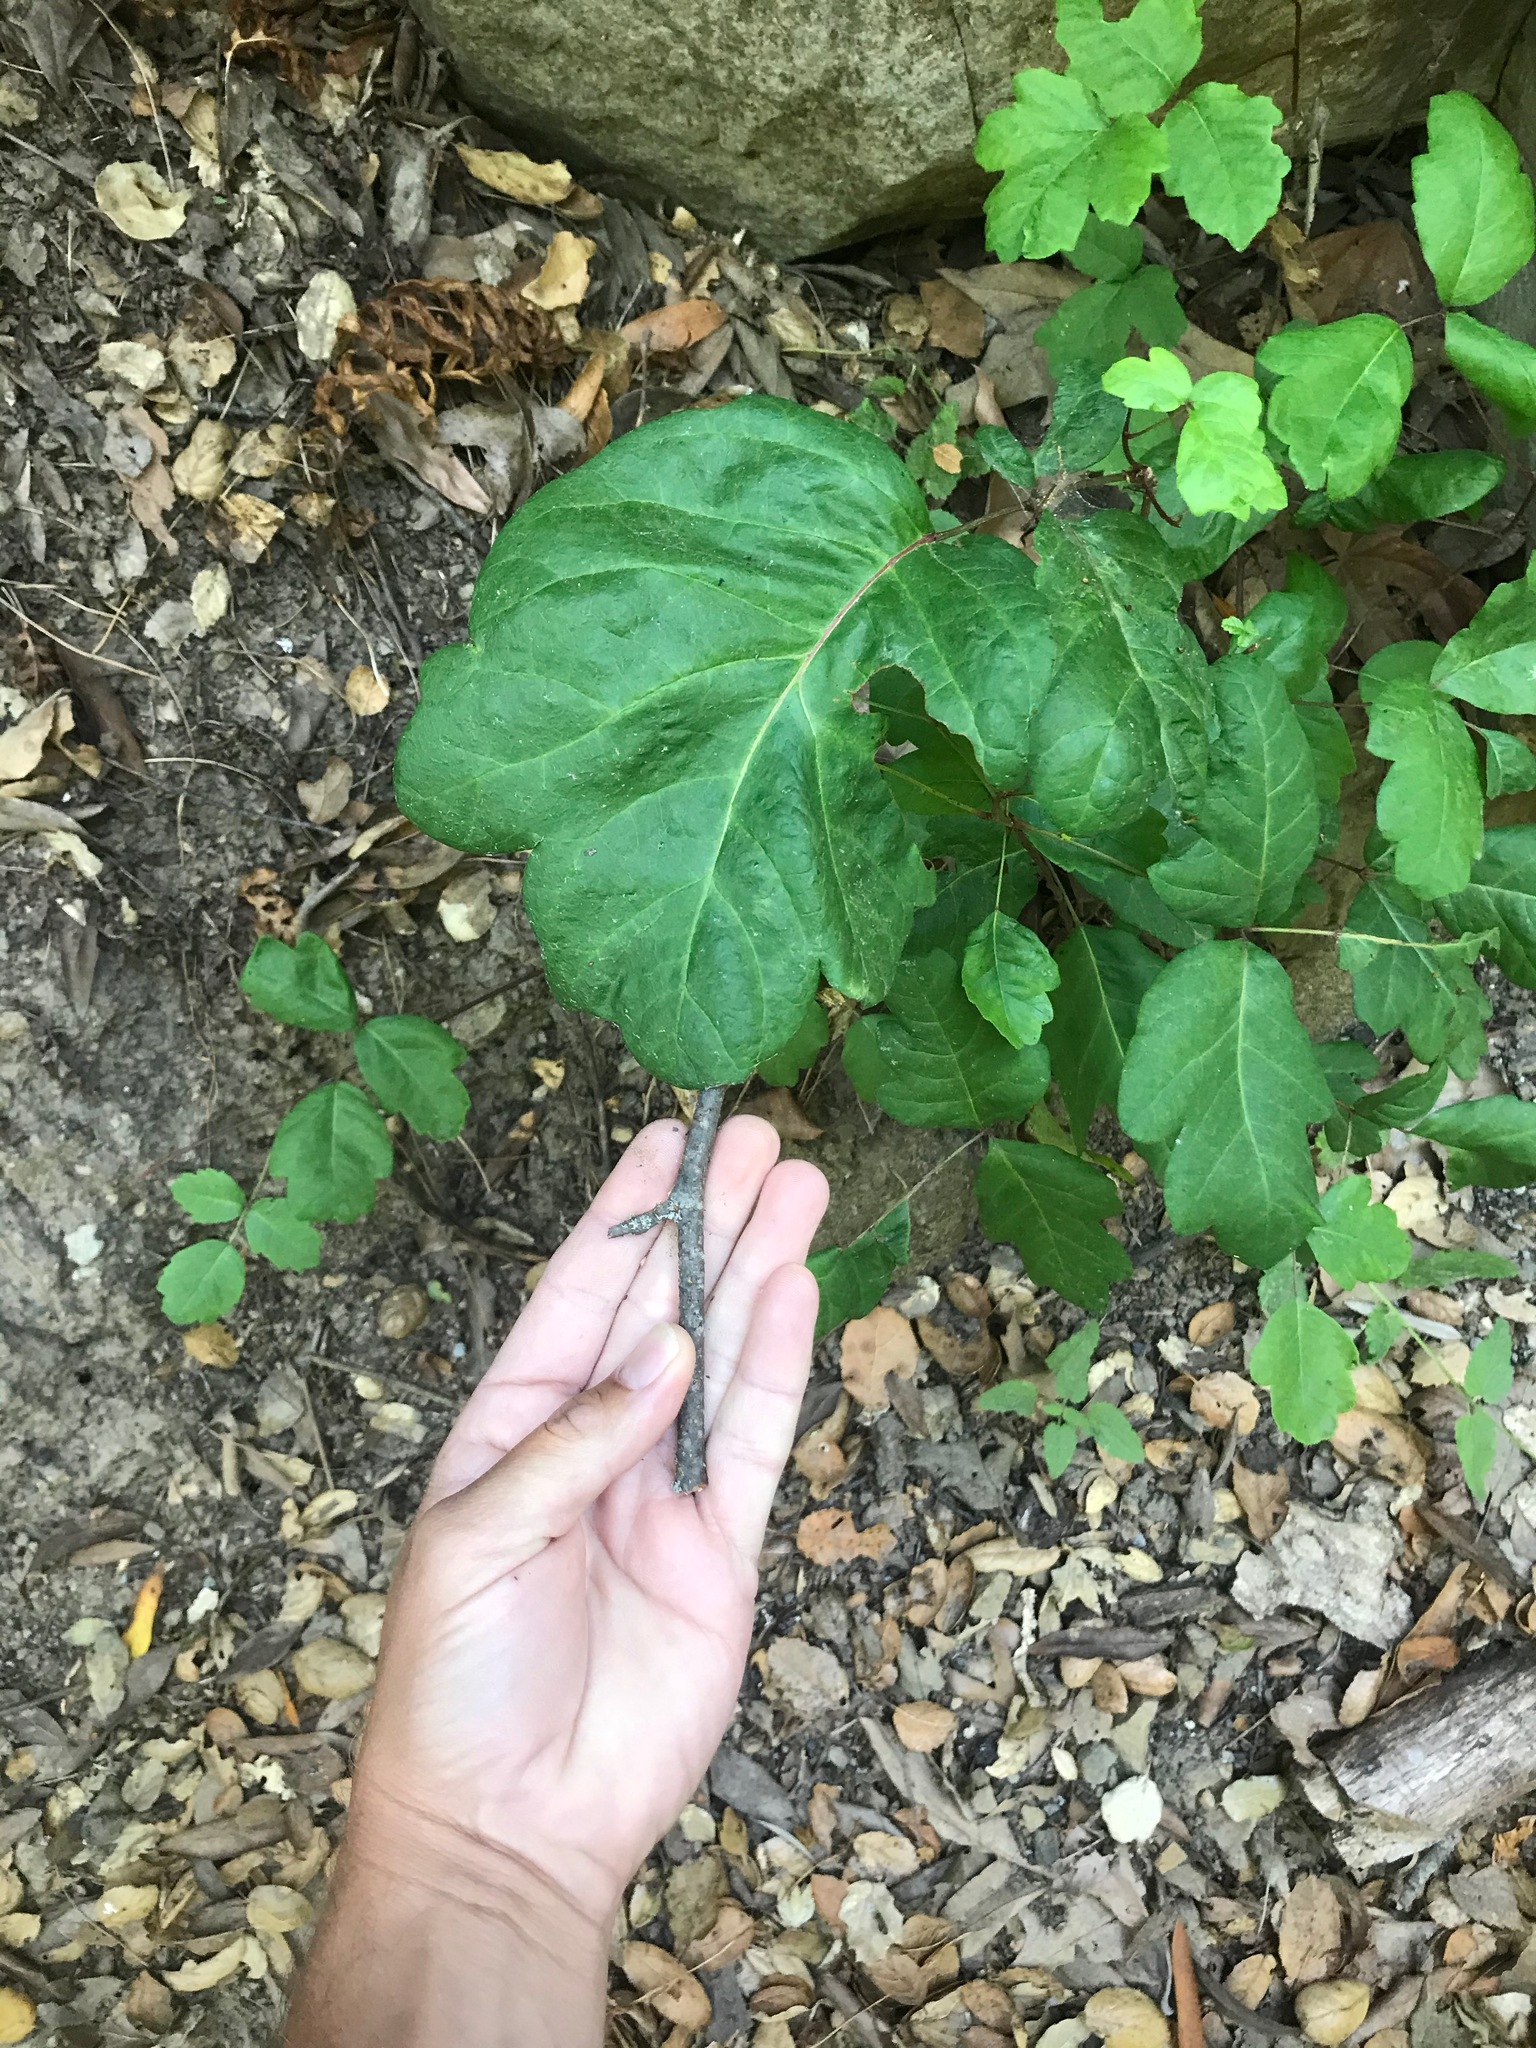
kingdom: Plantae
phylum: Tracheophyta
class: Magnoliopsida
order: Sapindales
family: Anacardiaceae
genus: Toxicodendron
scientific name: Toxicodendron diversilobum
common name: Pacific poison-oak
